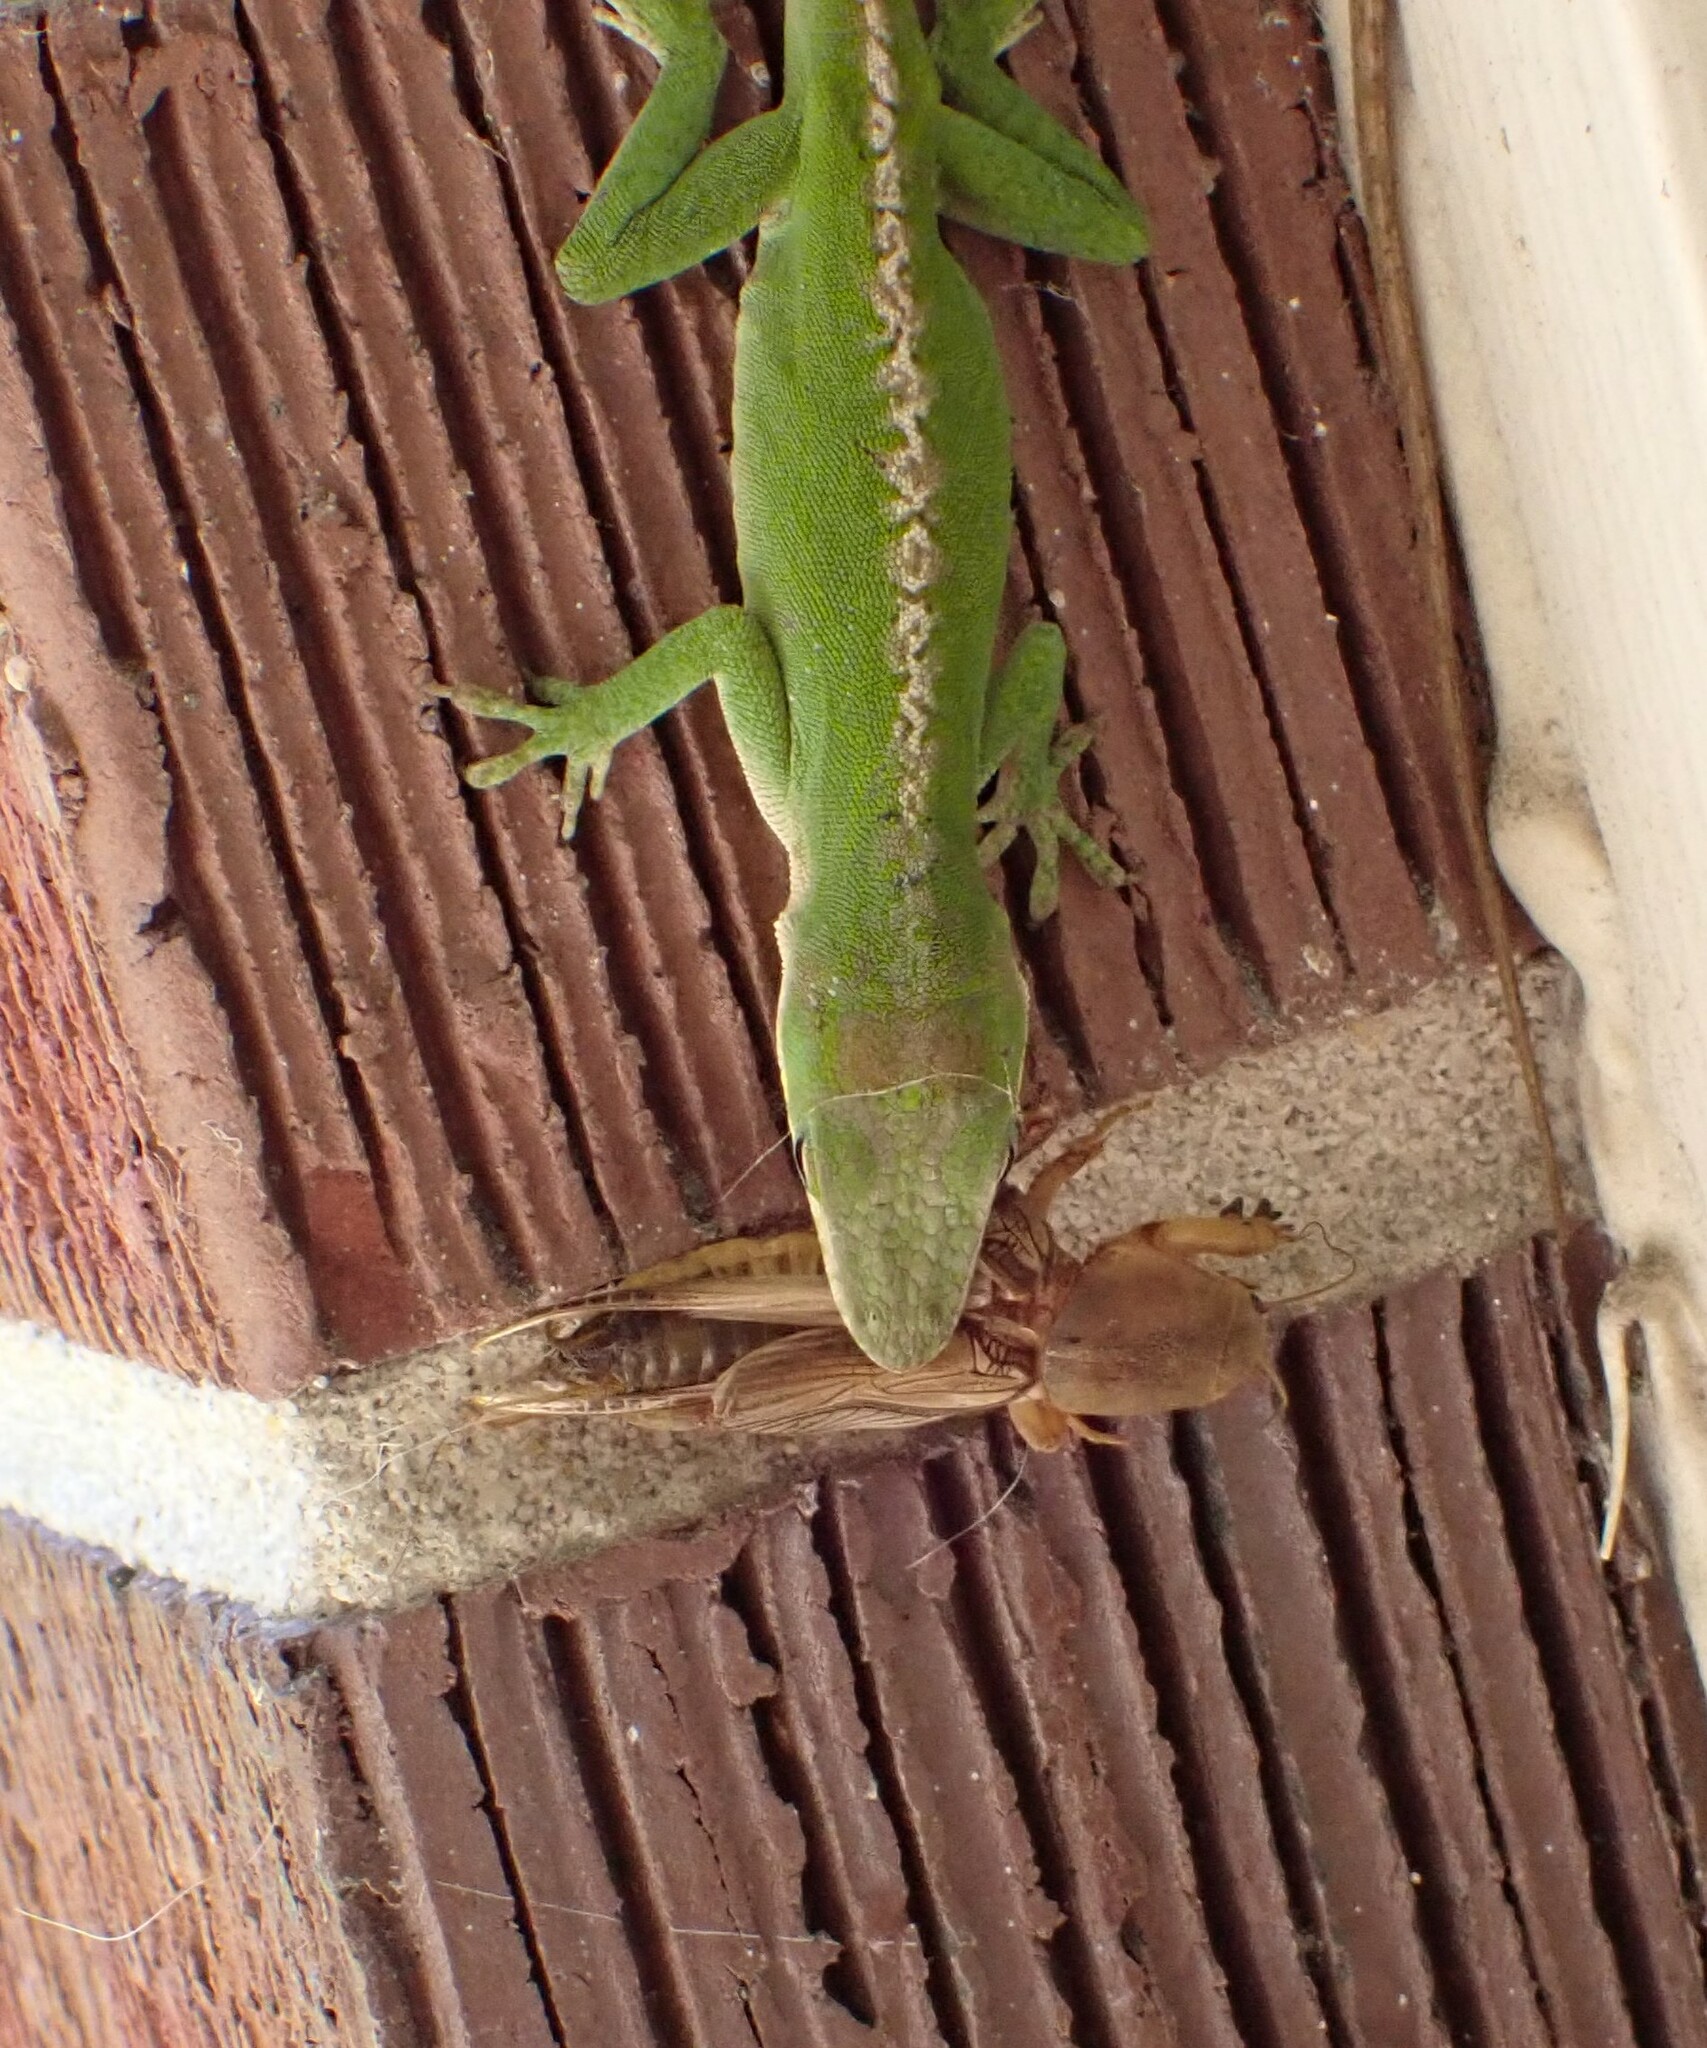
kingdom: Animalia
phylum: Arthropoda
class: Insecta
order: Orthoptera
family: Gryllotalpidae
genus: Neoscapteriscus
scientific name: Neoscapteriscus vicinus
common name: Tawny mole cricket
